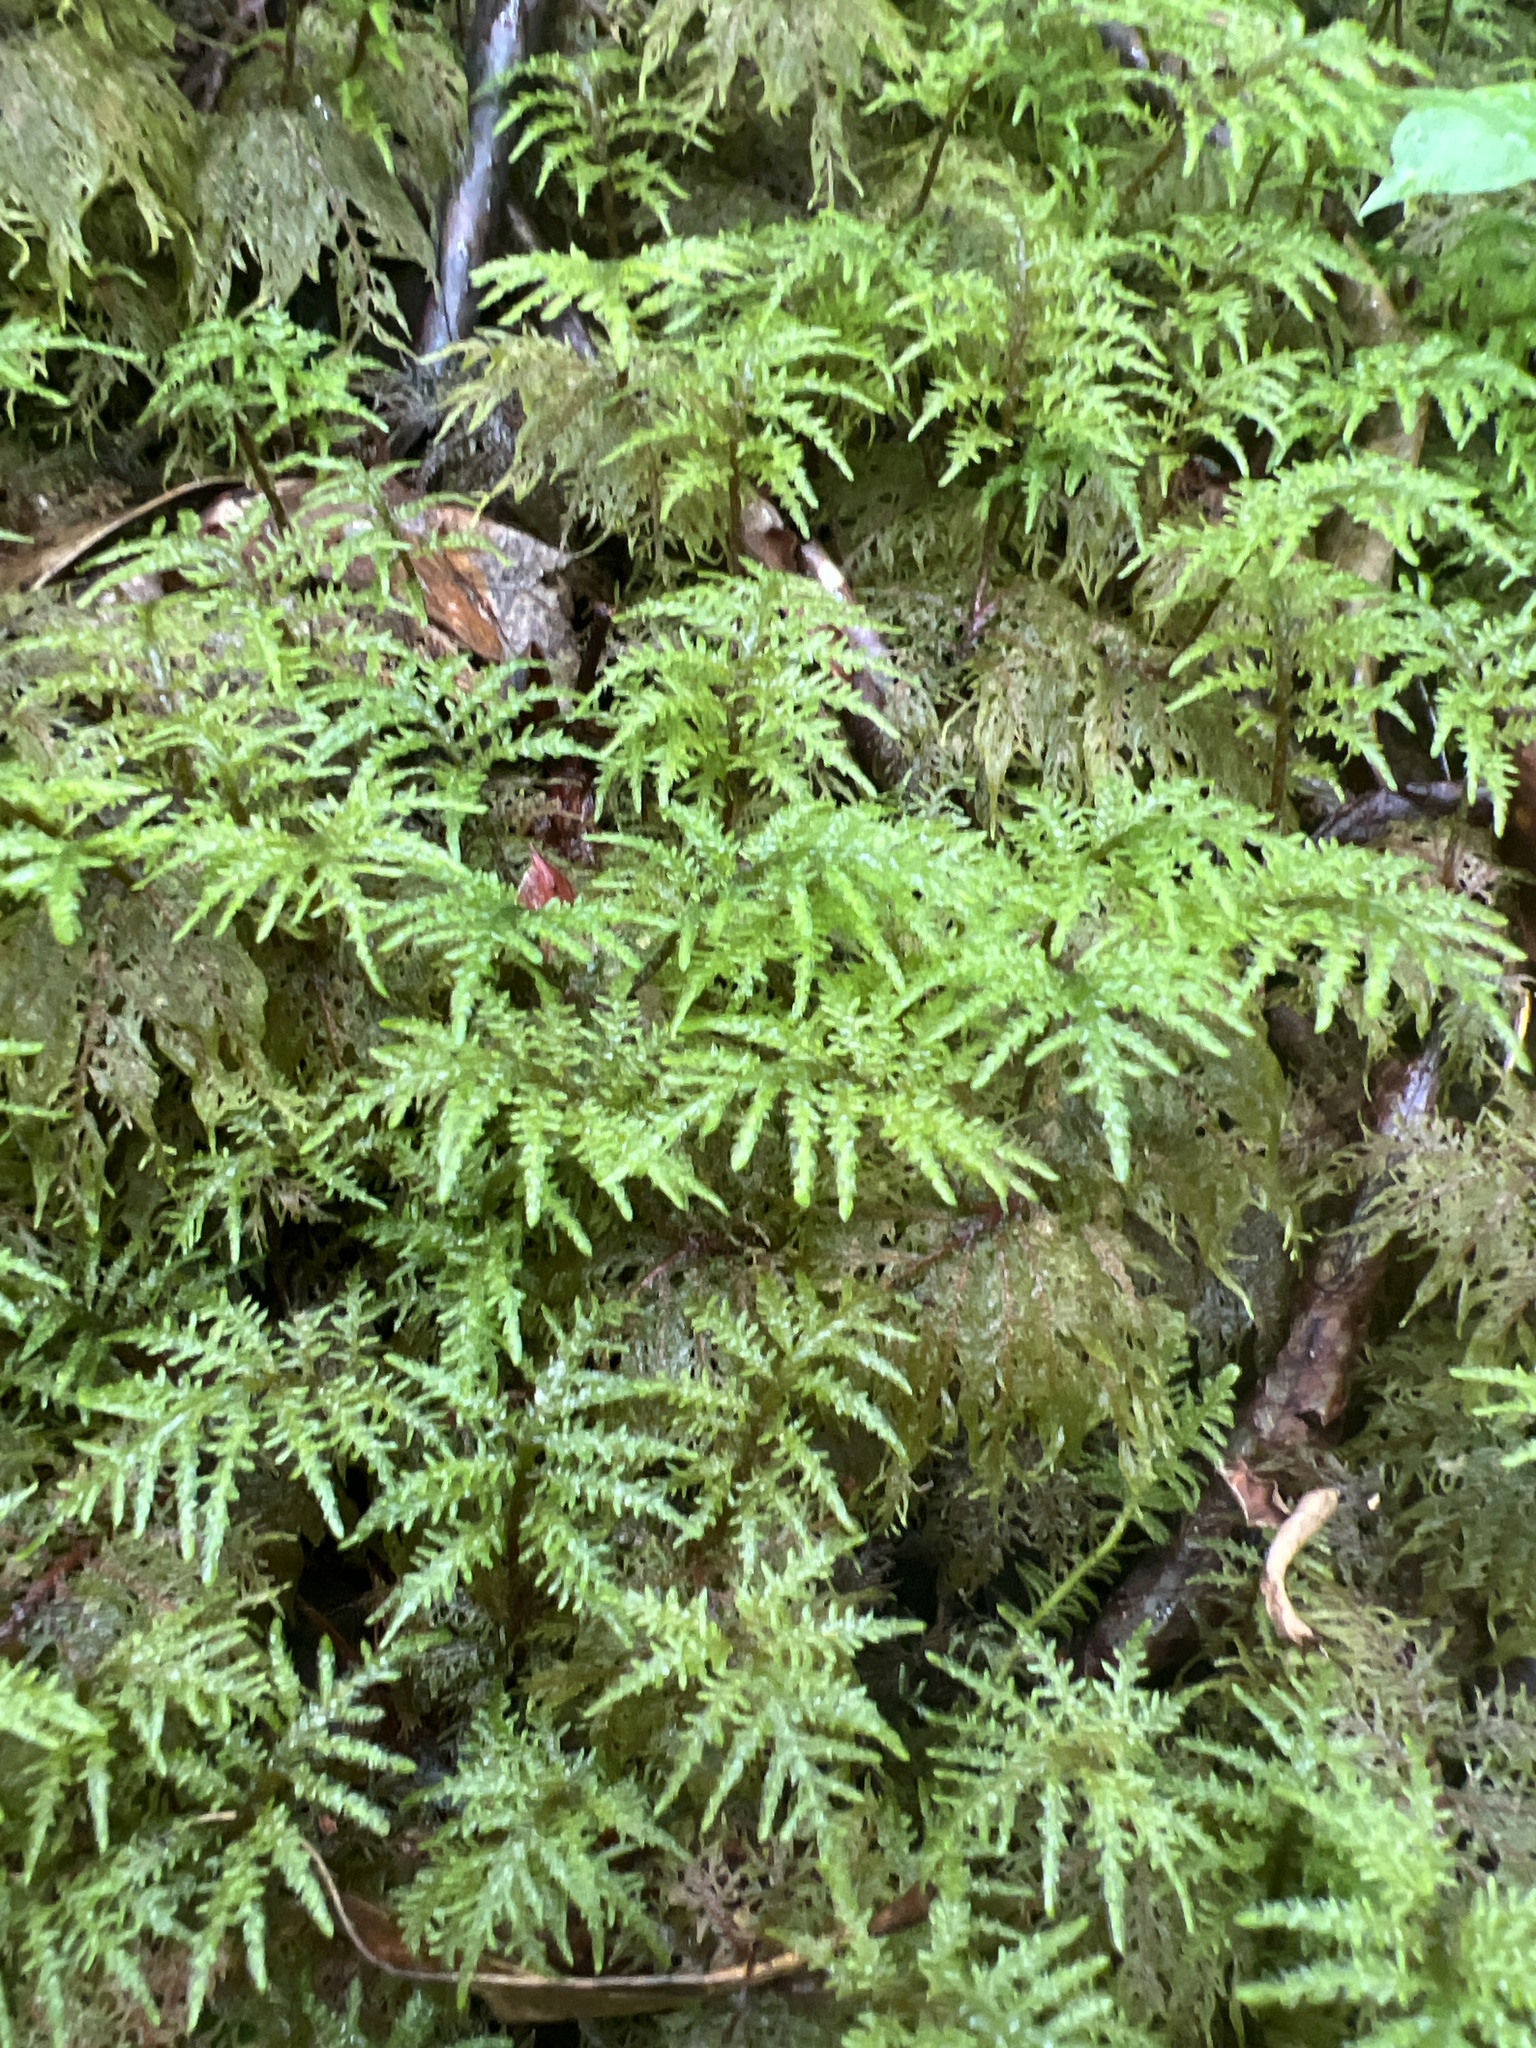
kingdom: Plantae
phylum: Bryophyta
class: Bryopsida
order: Hypnales
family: Hylocomiaceae
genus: Hylocomium
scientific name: Hylocomium splendens
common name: Stairstep moss
